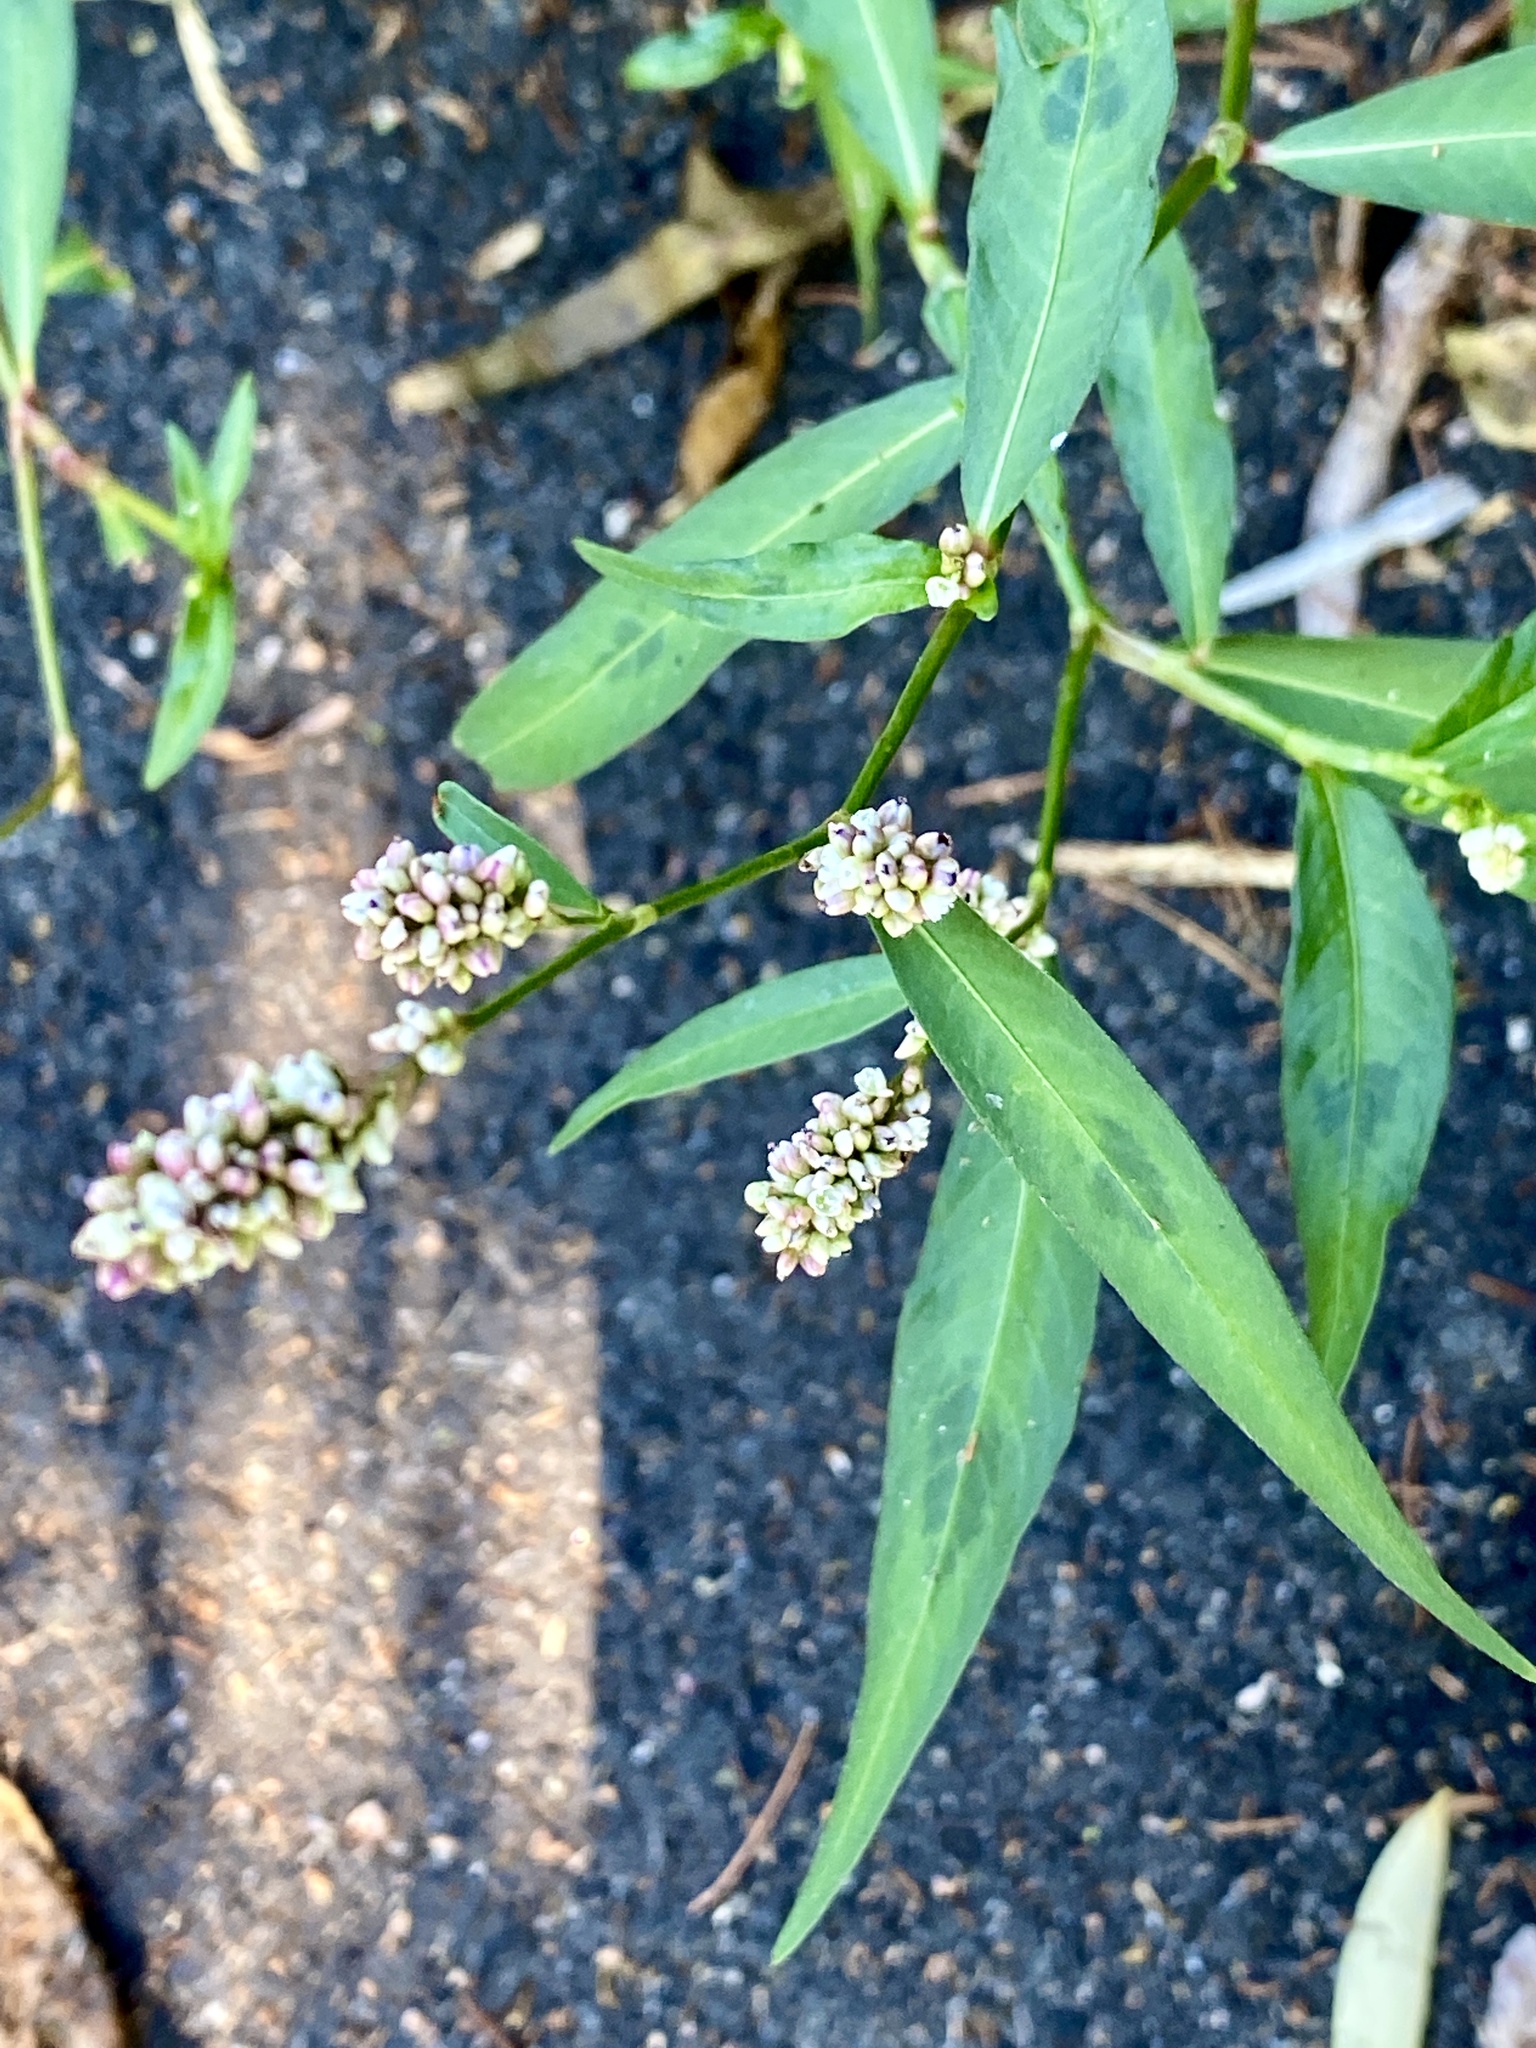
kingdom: Plantae
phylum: Tracheophyta
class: Magnoliopsida
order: Caryophyllales
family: Polygonaceae
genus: Persicaria
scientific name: Persicaria maculosa
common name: Redshank
